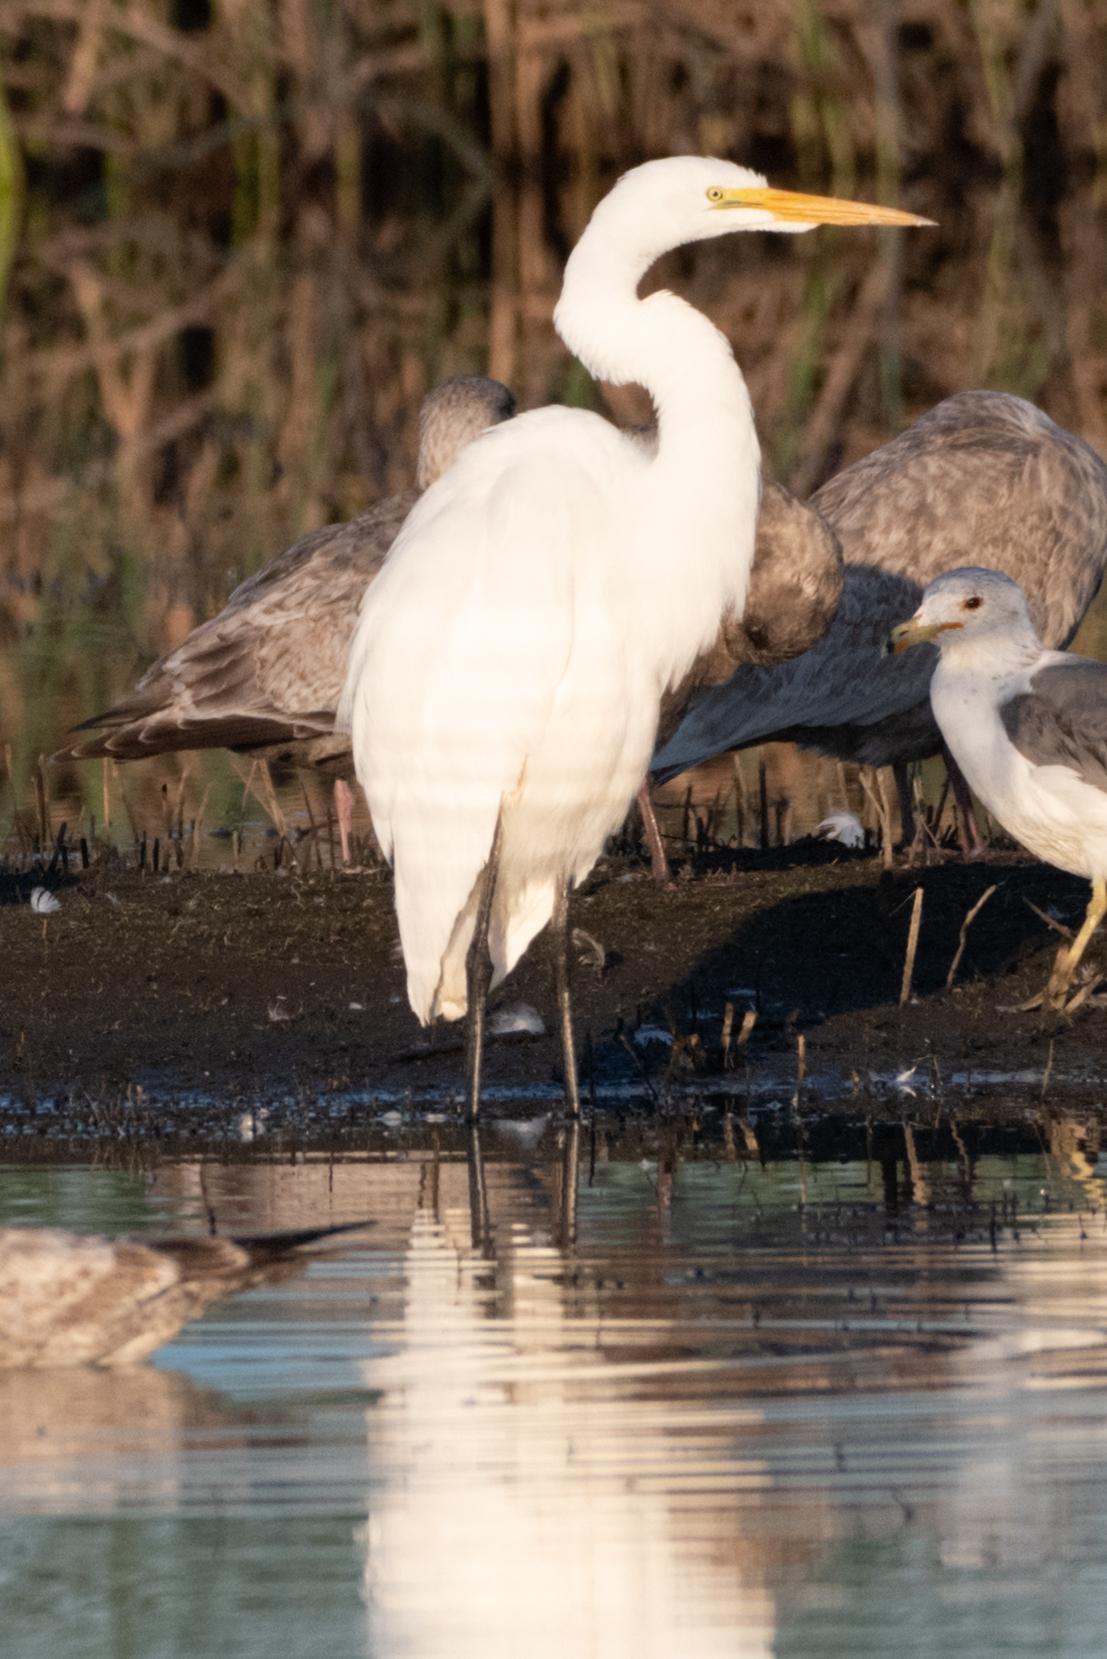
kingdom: Animalia
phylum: Chordata
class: Aves
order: Pelecaniformes
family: Ardeidae
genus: Ardea
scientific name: Ardea alba
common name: Great egret
